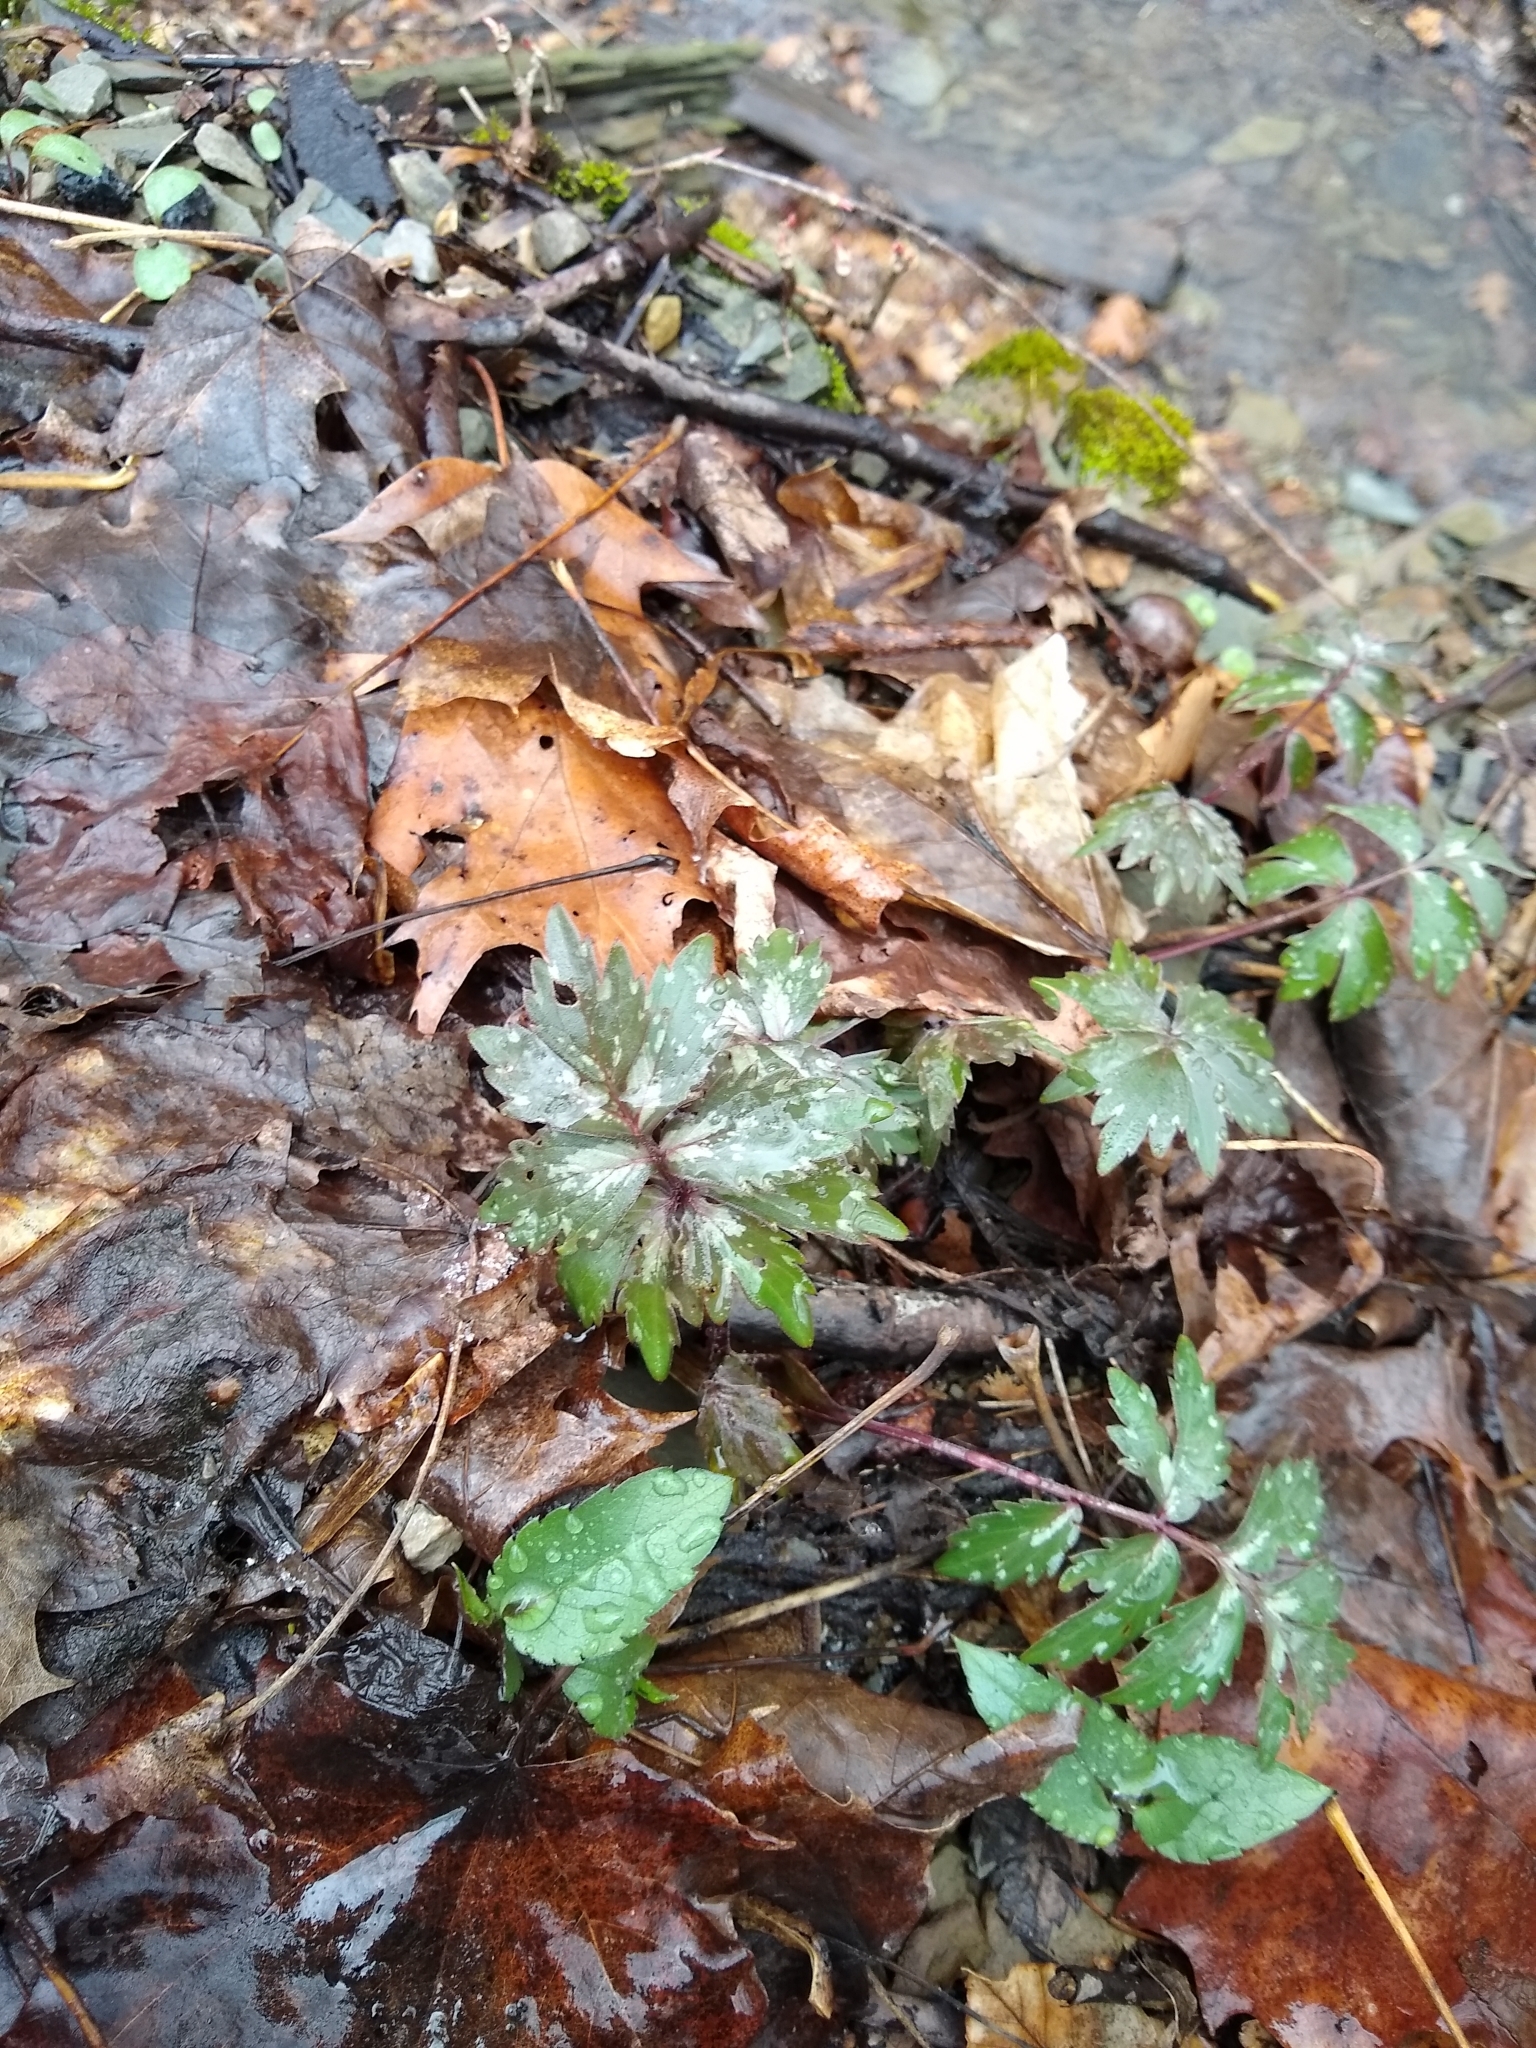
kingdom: Plantae
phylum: Tracheophyta
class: Magnoliopsida
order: Boraginales
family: Hydrophyllaceae
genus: Hydrophyllum
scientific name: Hydrophyllum virginianum
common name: Virginia waterleaf
